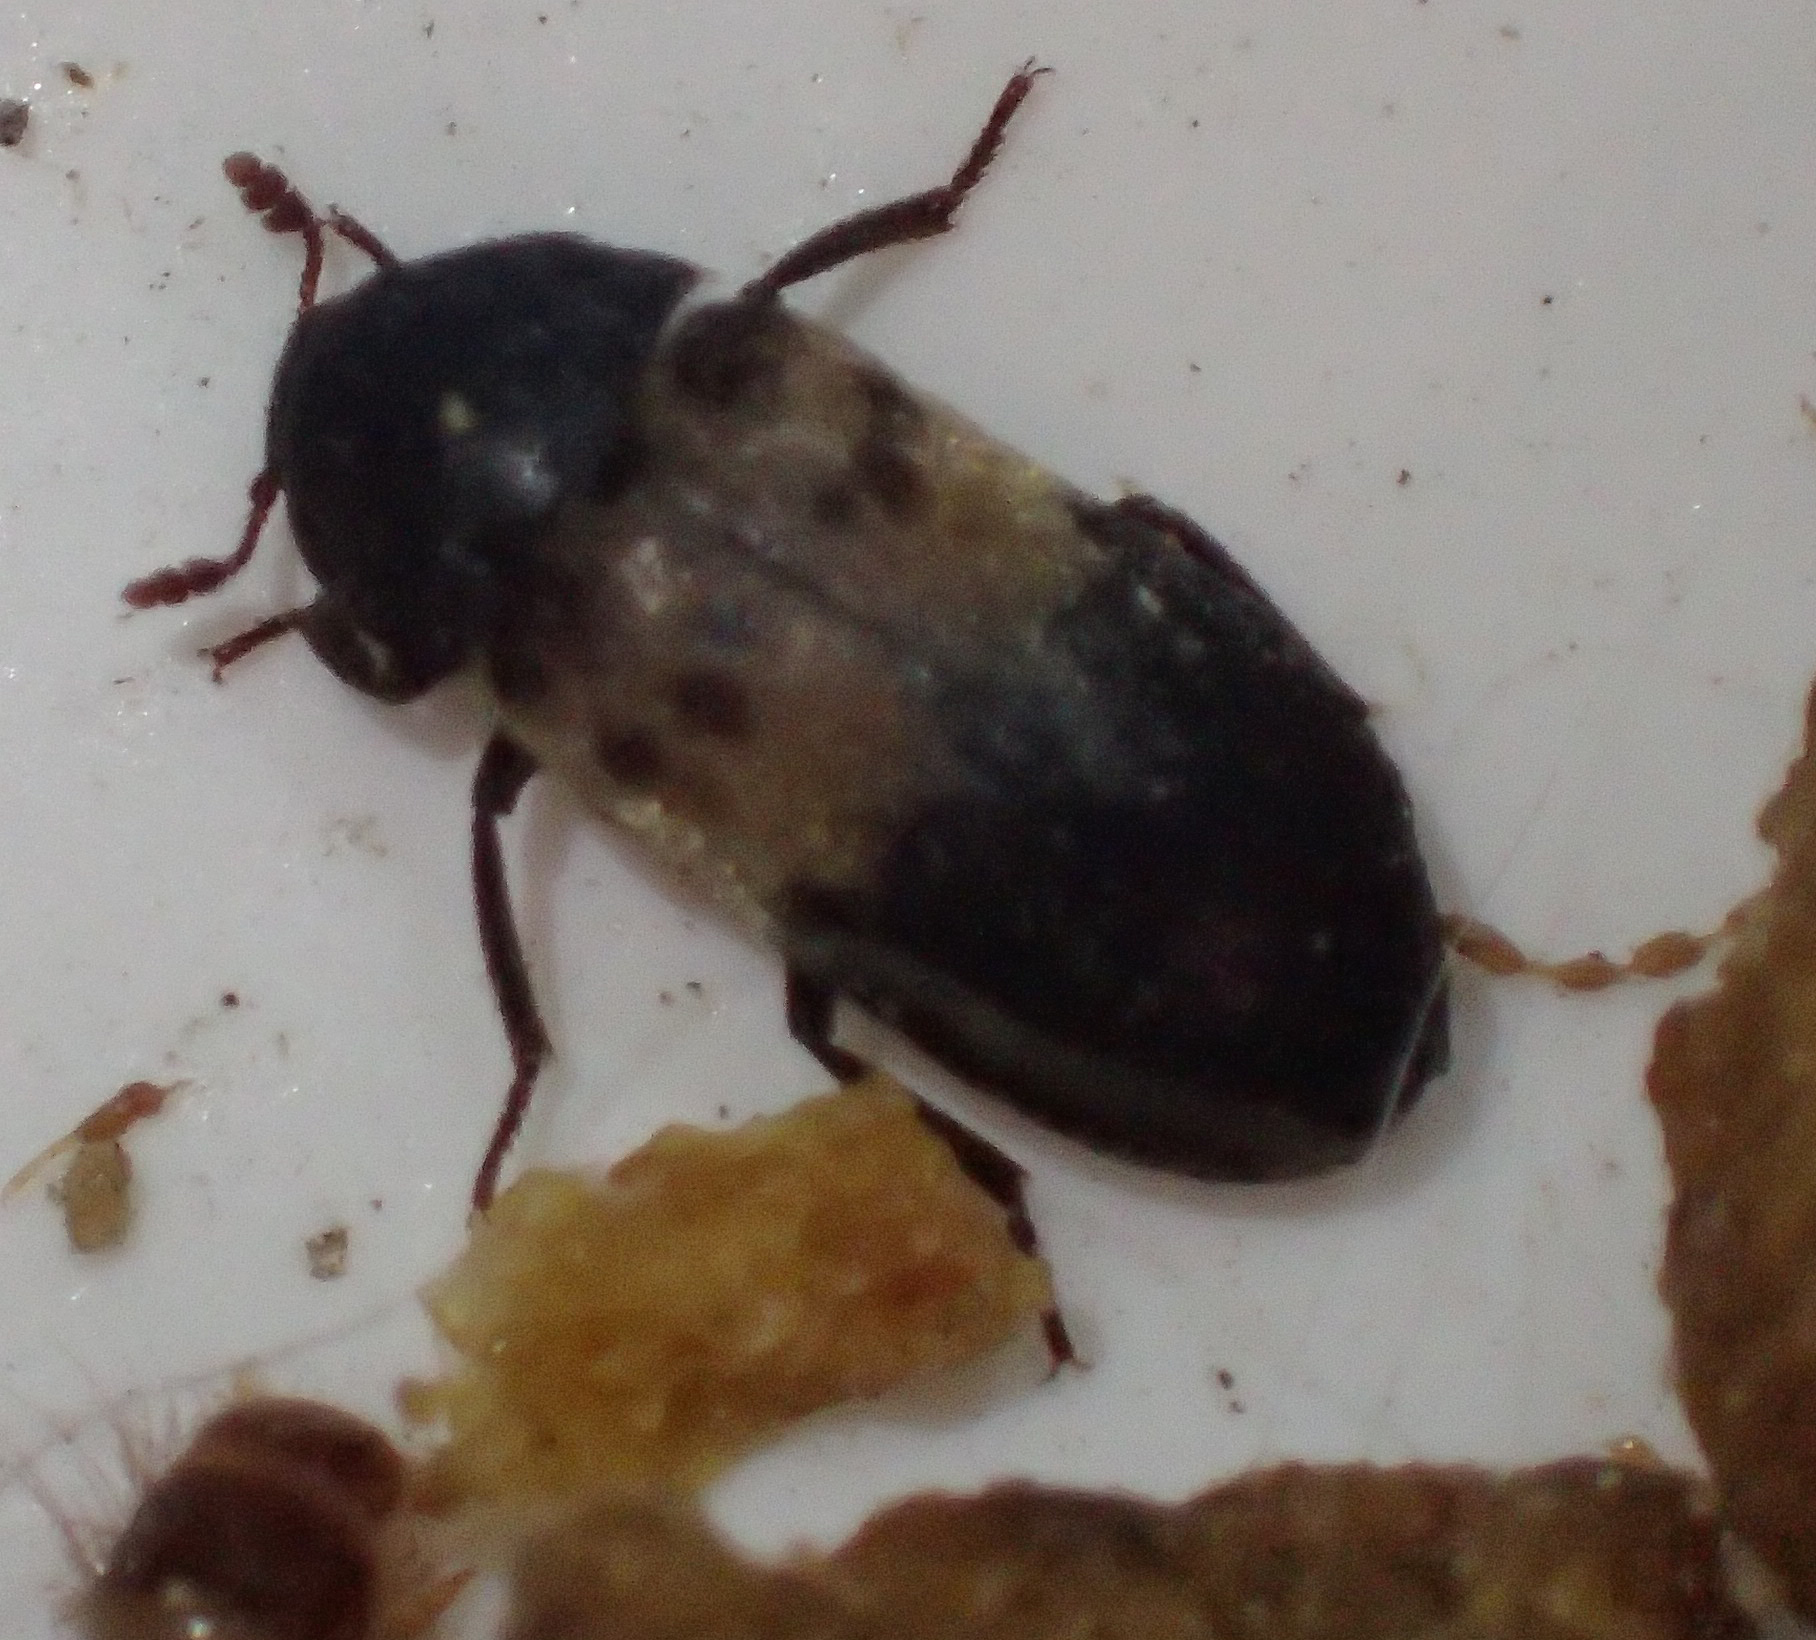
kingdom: Animalia
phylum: Arthropoda
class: Insecta
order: Coleoptera
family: Dermestidae
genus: Dermestes
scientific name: Dermestes lardarius
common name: Larder beetle
